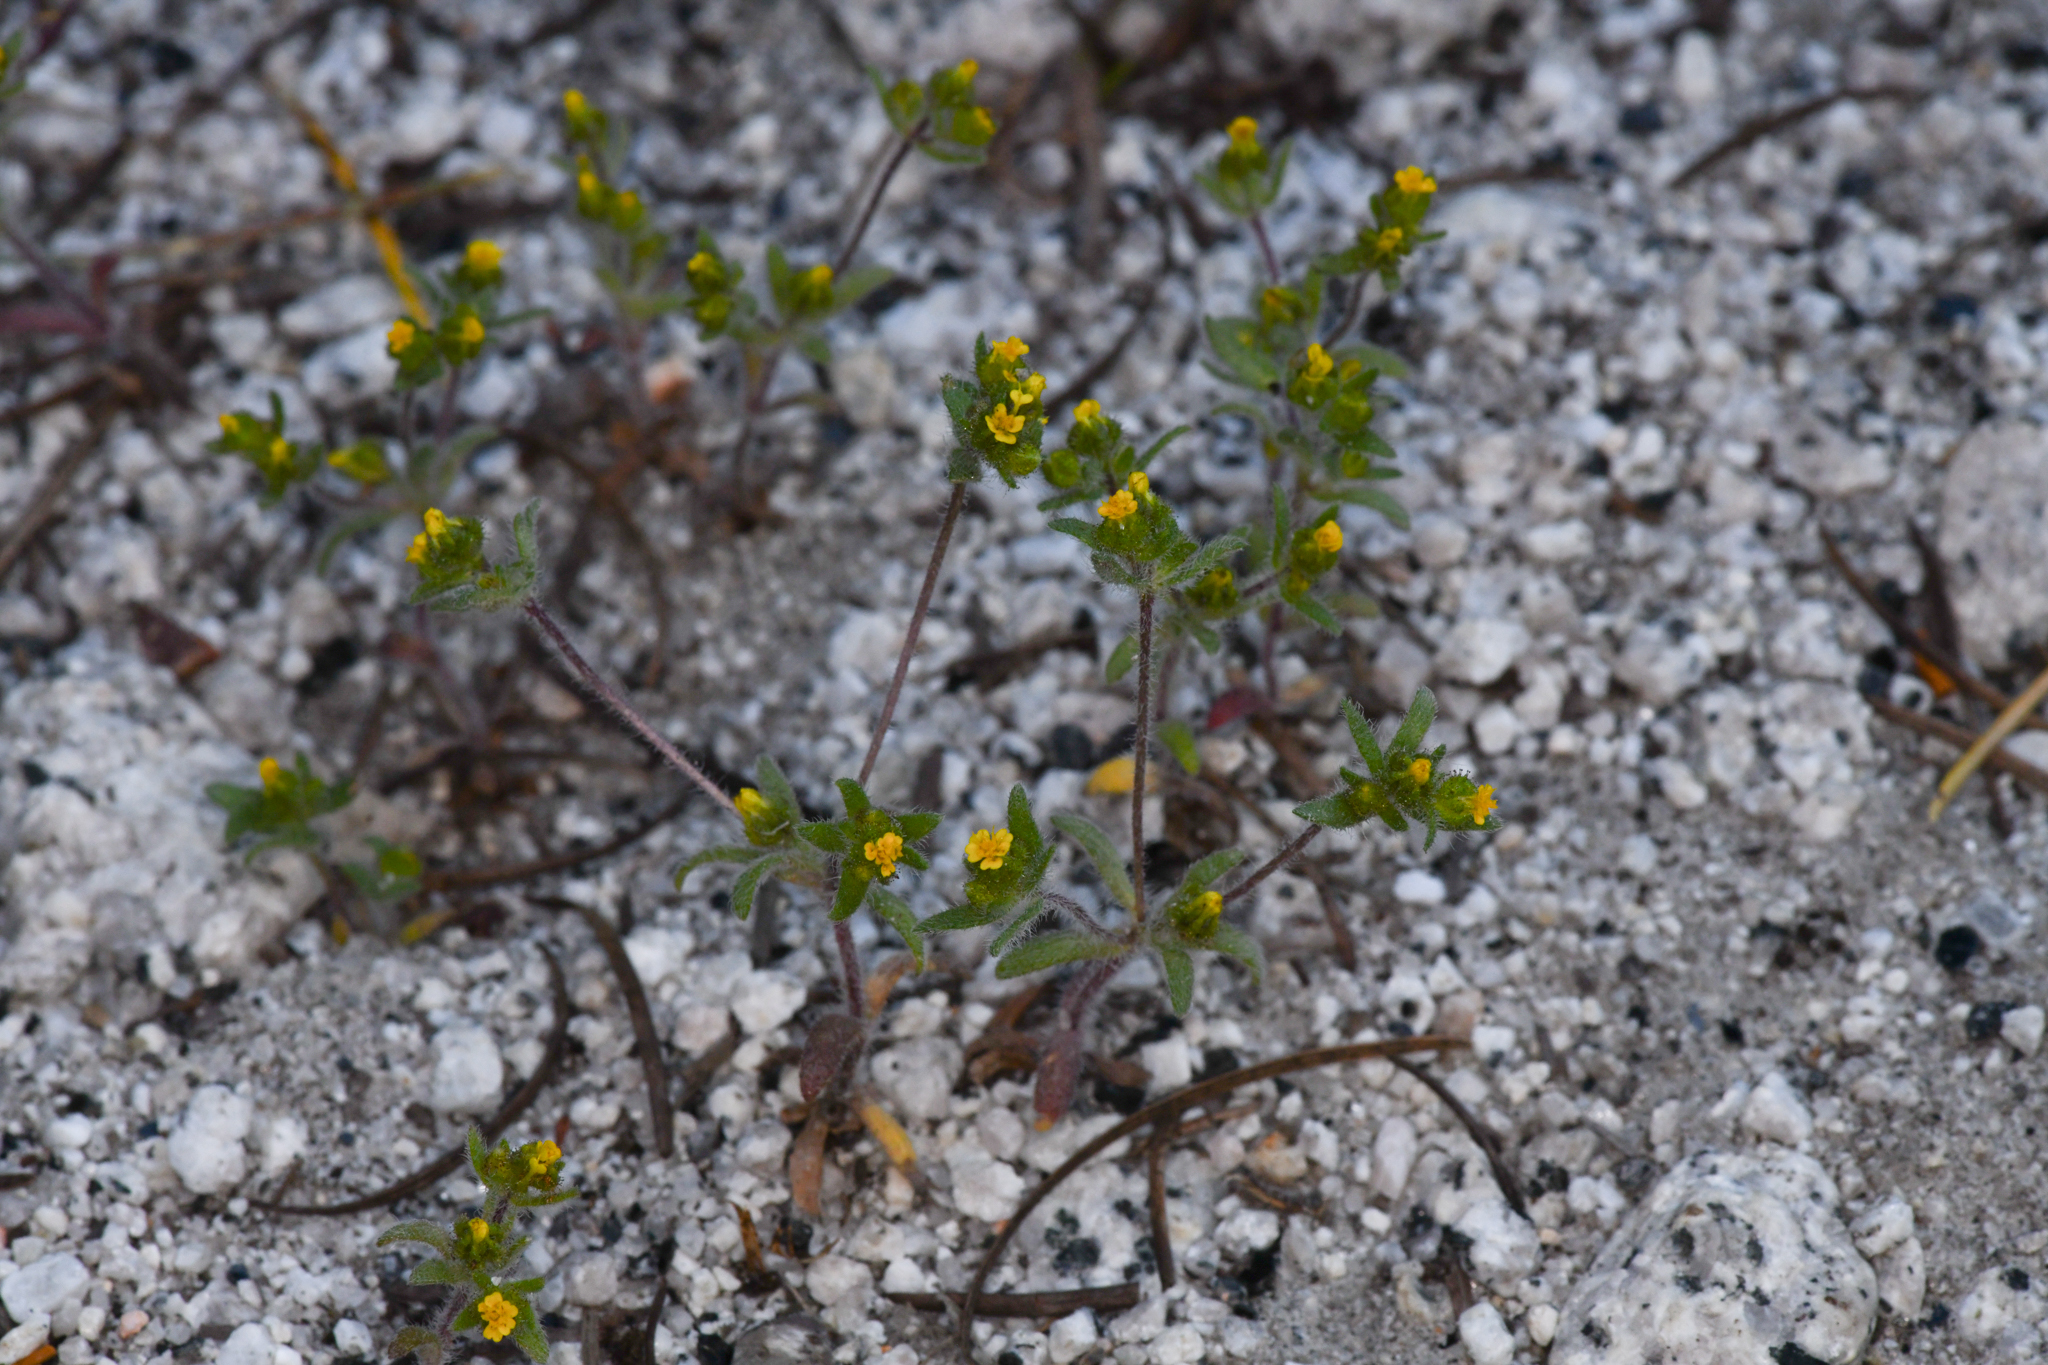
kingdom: Plantae
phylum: Tracheophyta
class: Magnoliopsida
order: Asterales
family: Asteraceae
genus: Hemizonella
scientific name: Hemizonella minima
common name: Opposite-leaved tarweed
